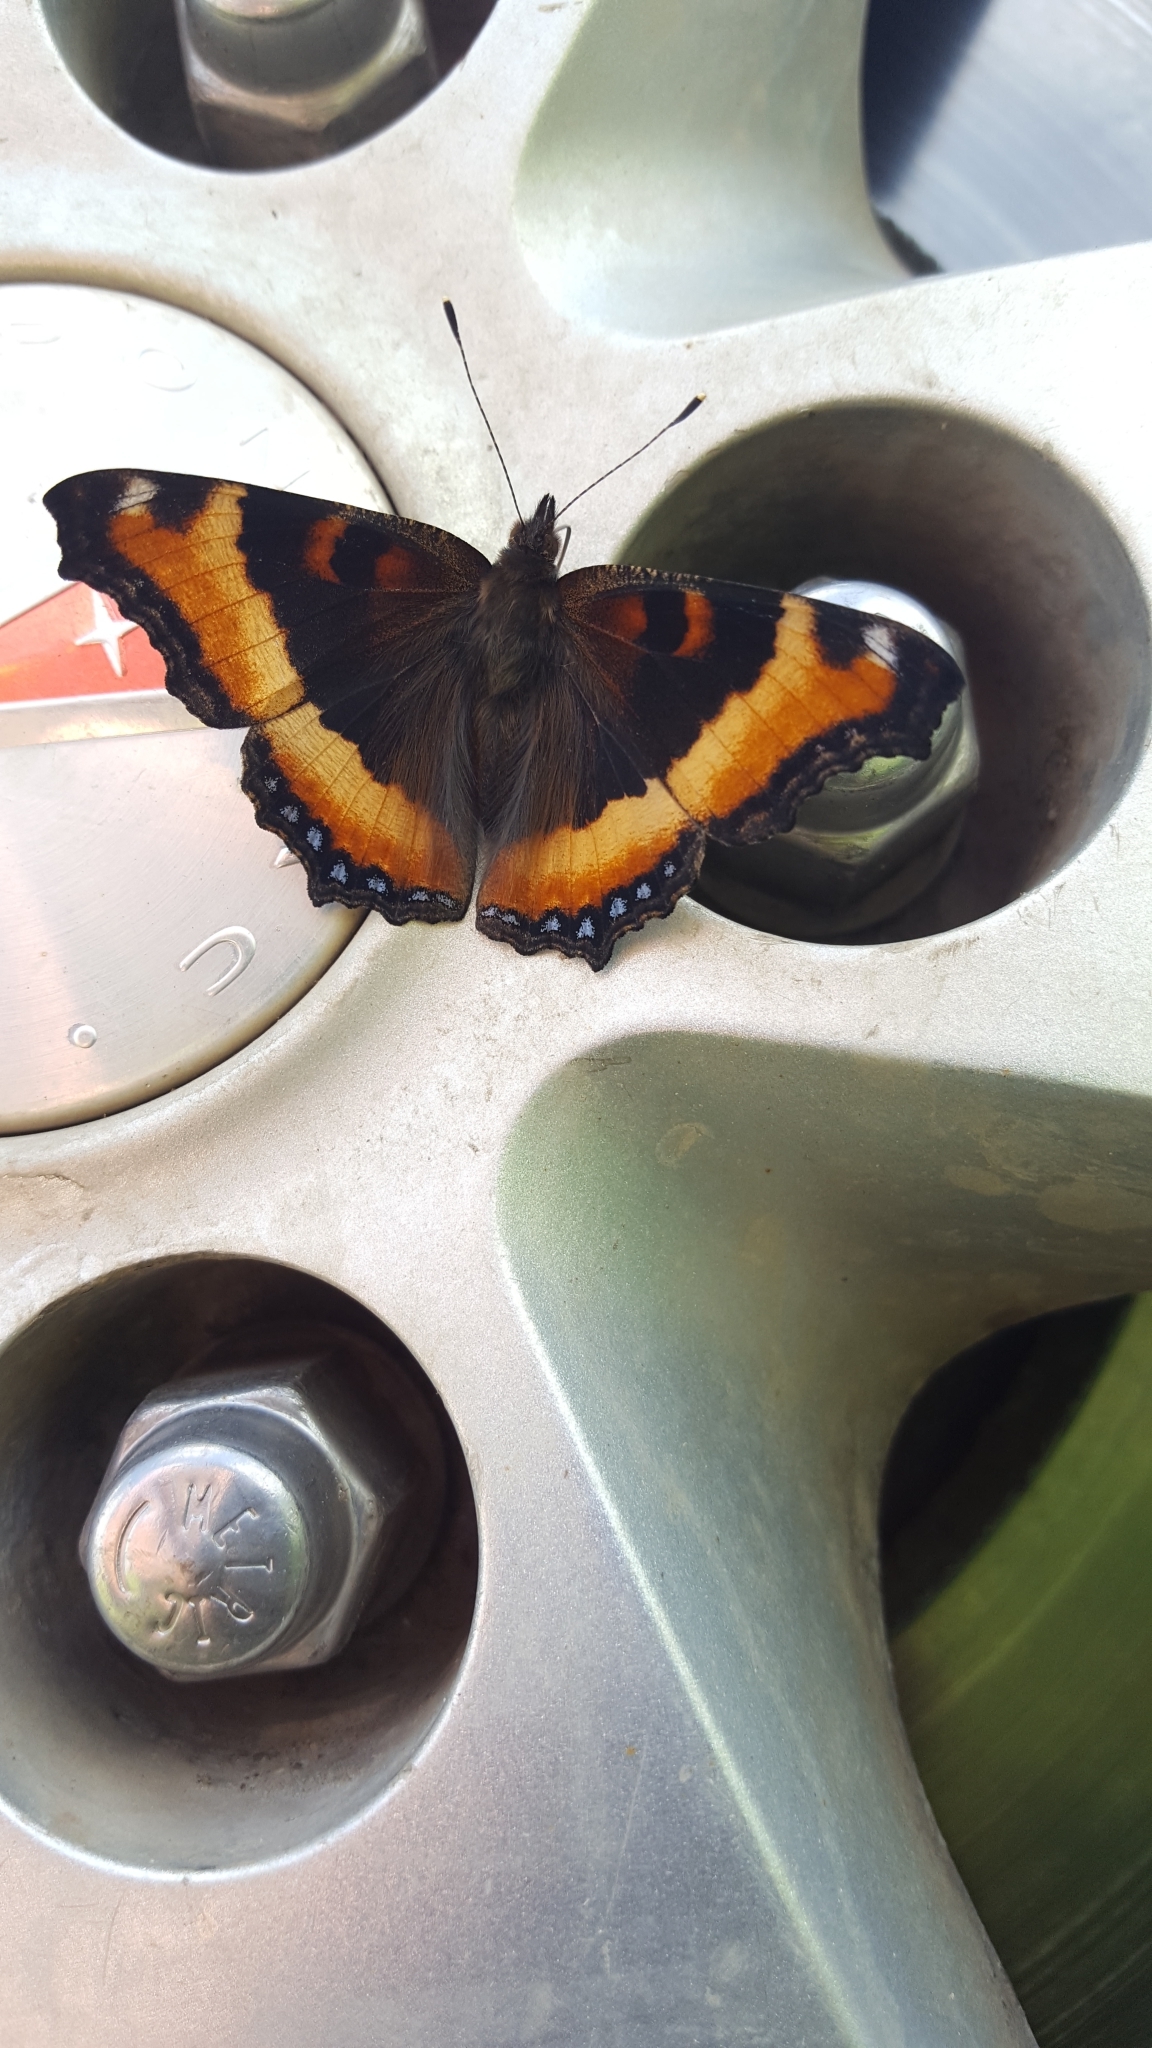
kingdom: Animalia
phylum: Arthropoda
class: Insecta
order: Lepidoptera
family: Nymphalidae
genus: Aglais
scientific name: Aglais milberti
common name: Milbert's tortoiseshell
